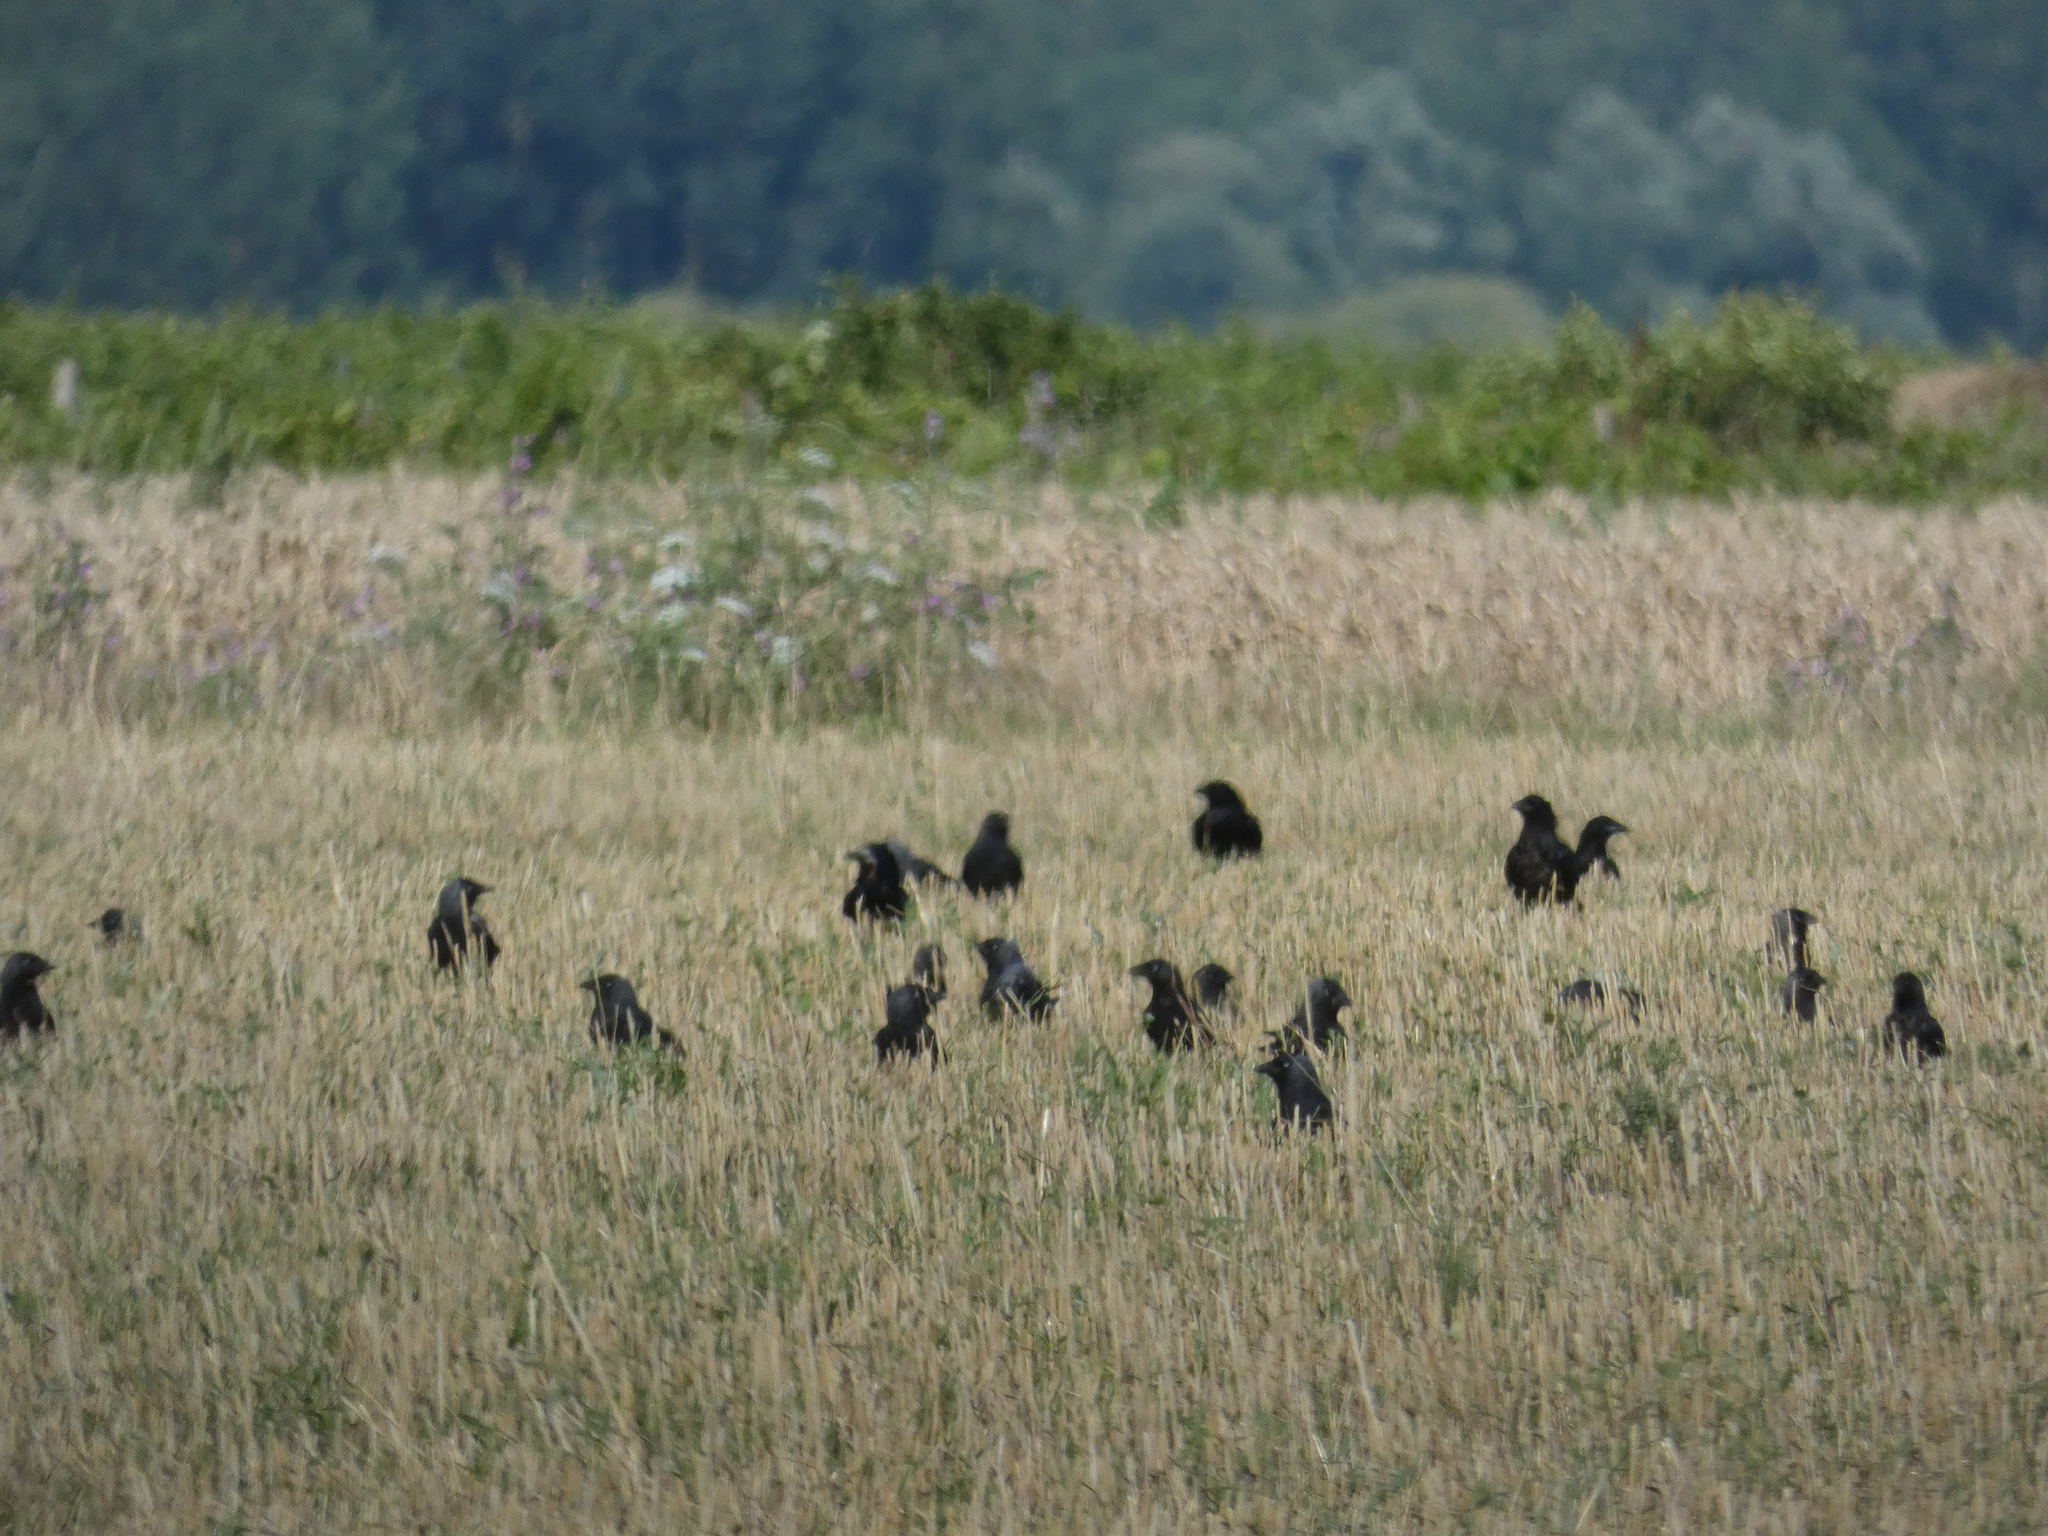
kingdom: Animalia
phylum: Chordata
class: Aves
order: Passeriformes
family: Corvidae
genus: Coloeus
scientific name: Coloeus monedula
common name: Western jackdaw
